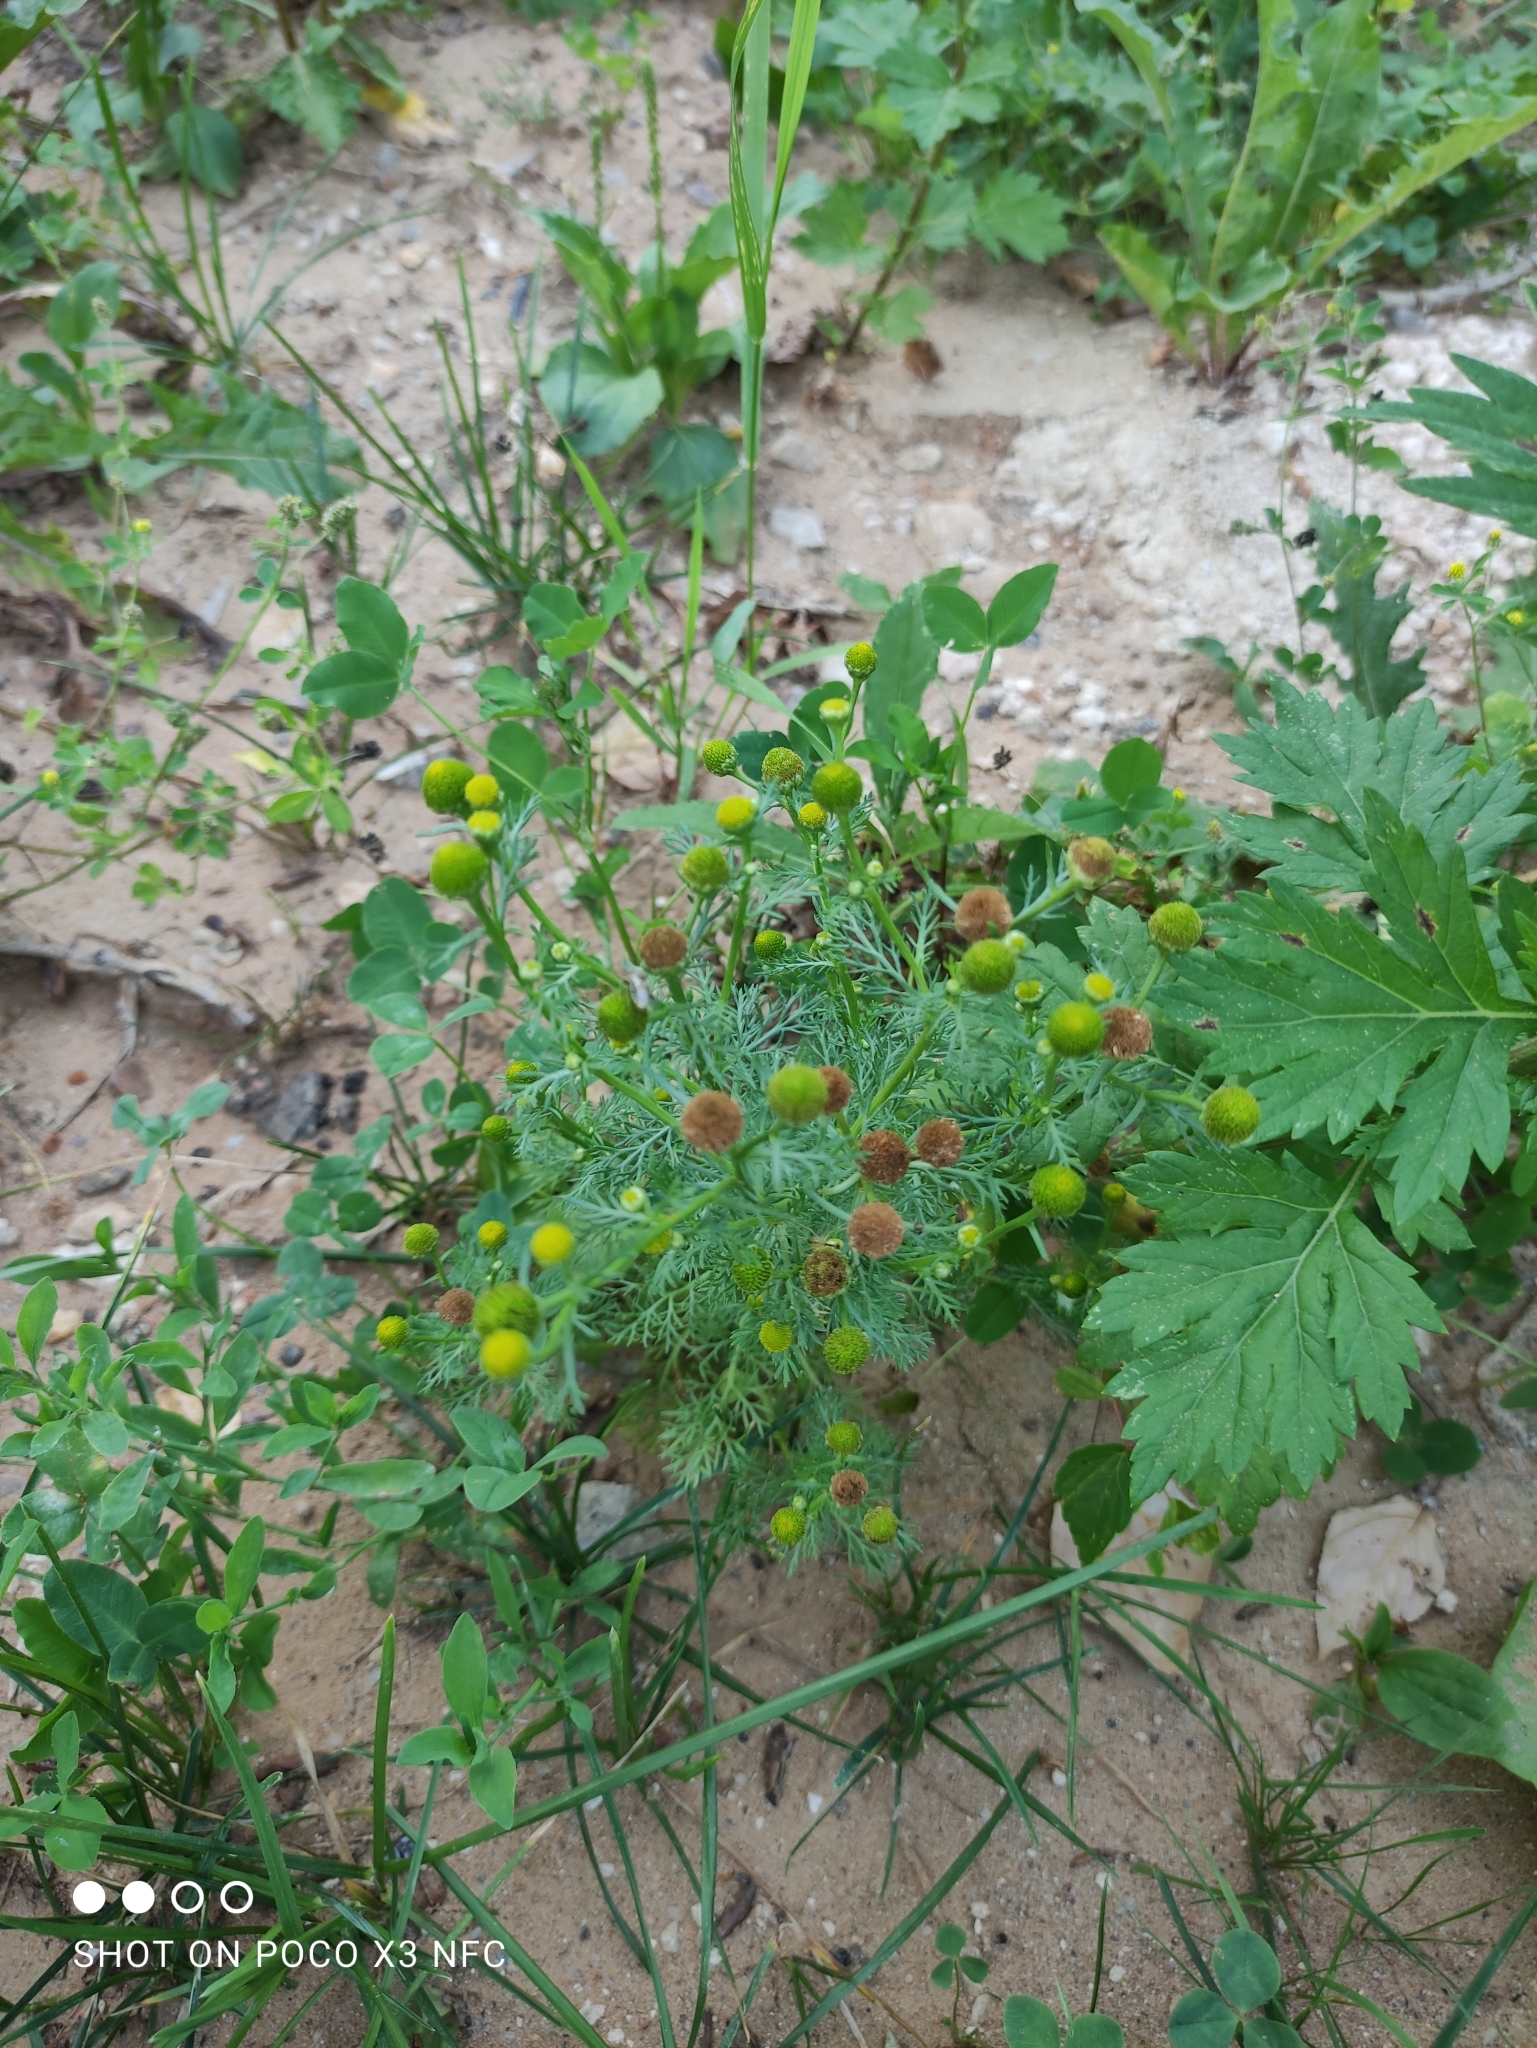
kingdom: Plantae
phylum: Tracheophyta
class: Magnoliopsida
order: Asterales
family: Asteraceae
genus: Matricaria
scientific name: Matricaria discoidea
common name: Disc mayweed
